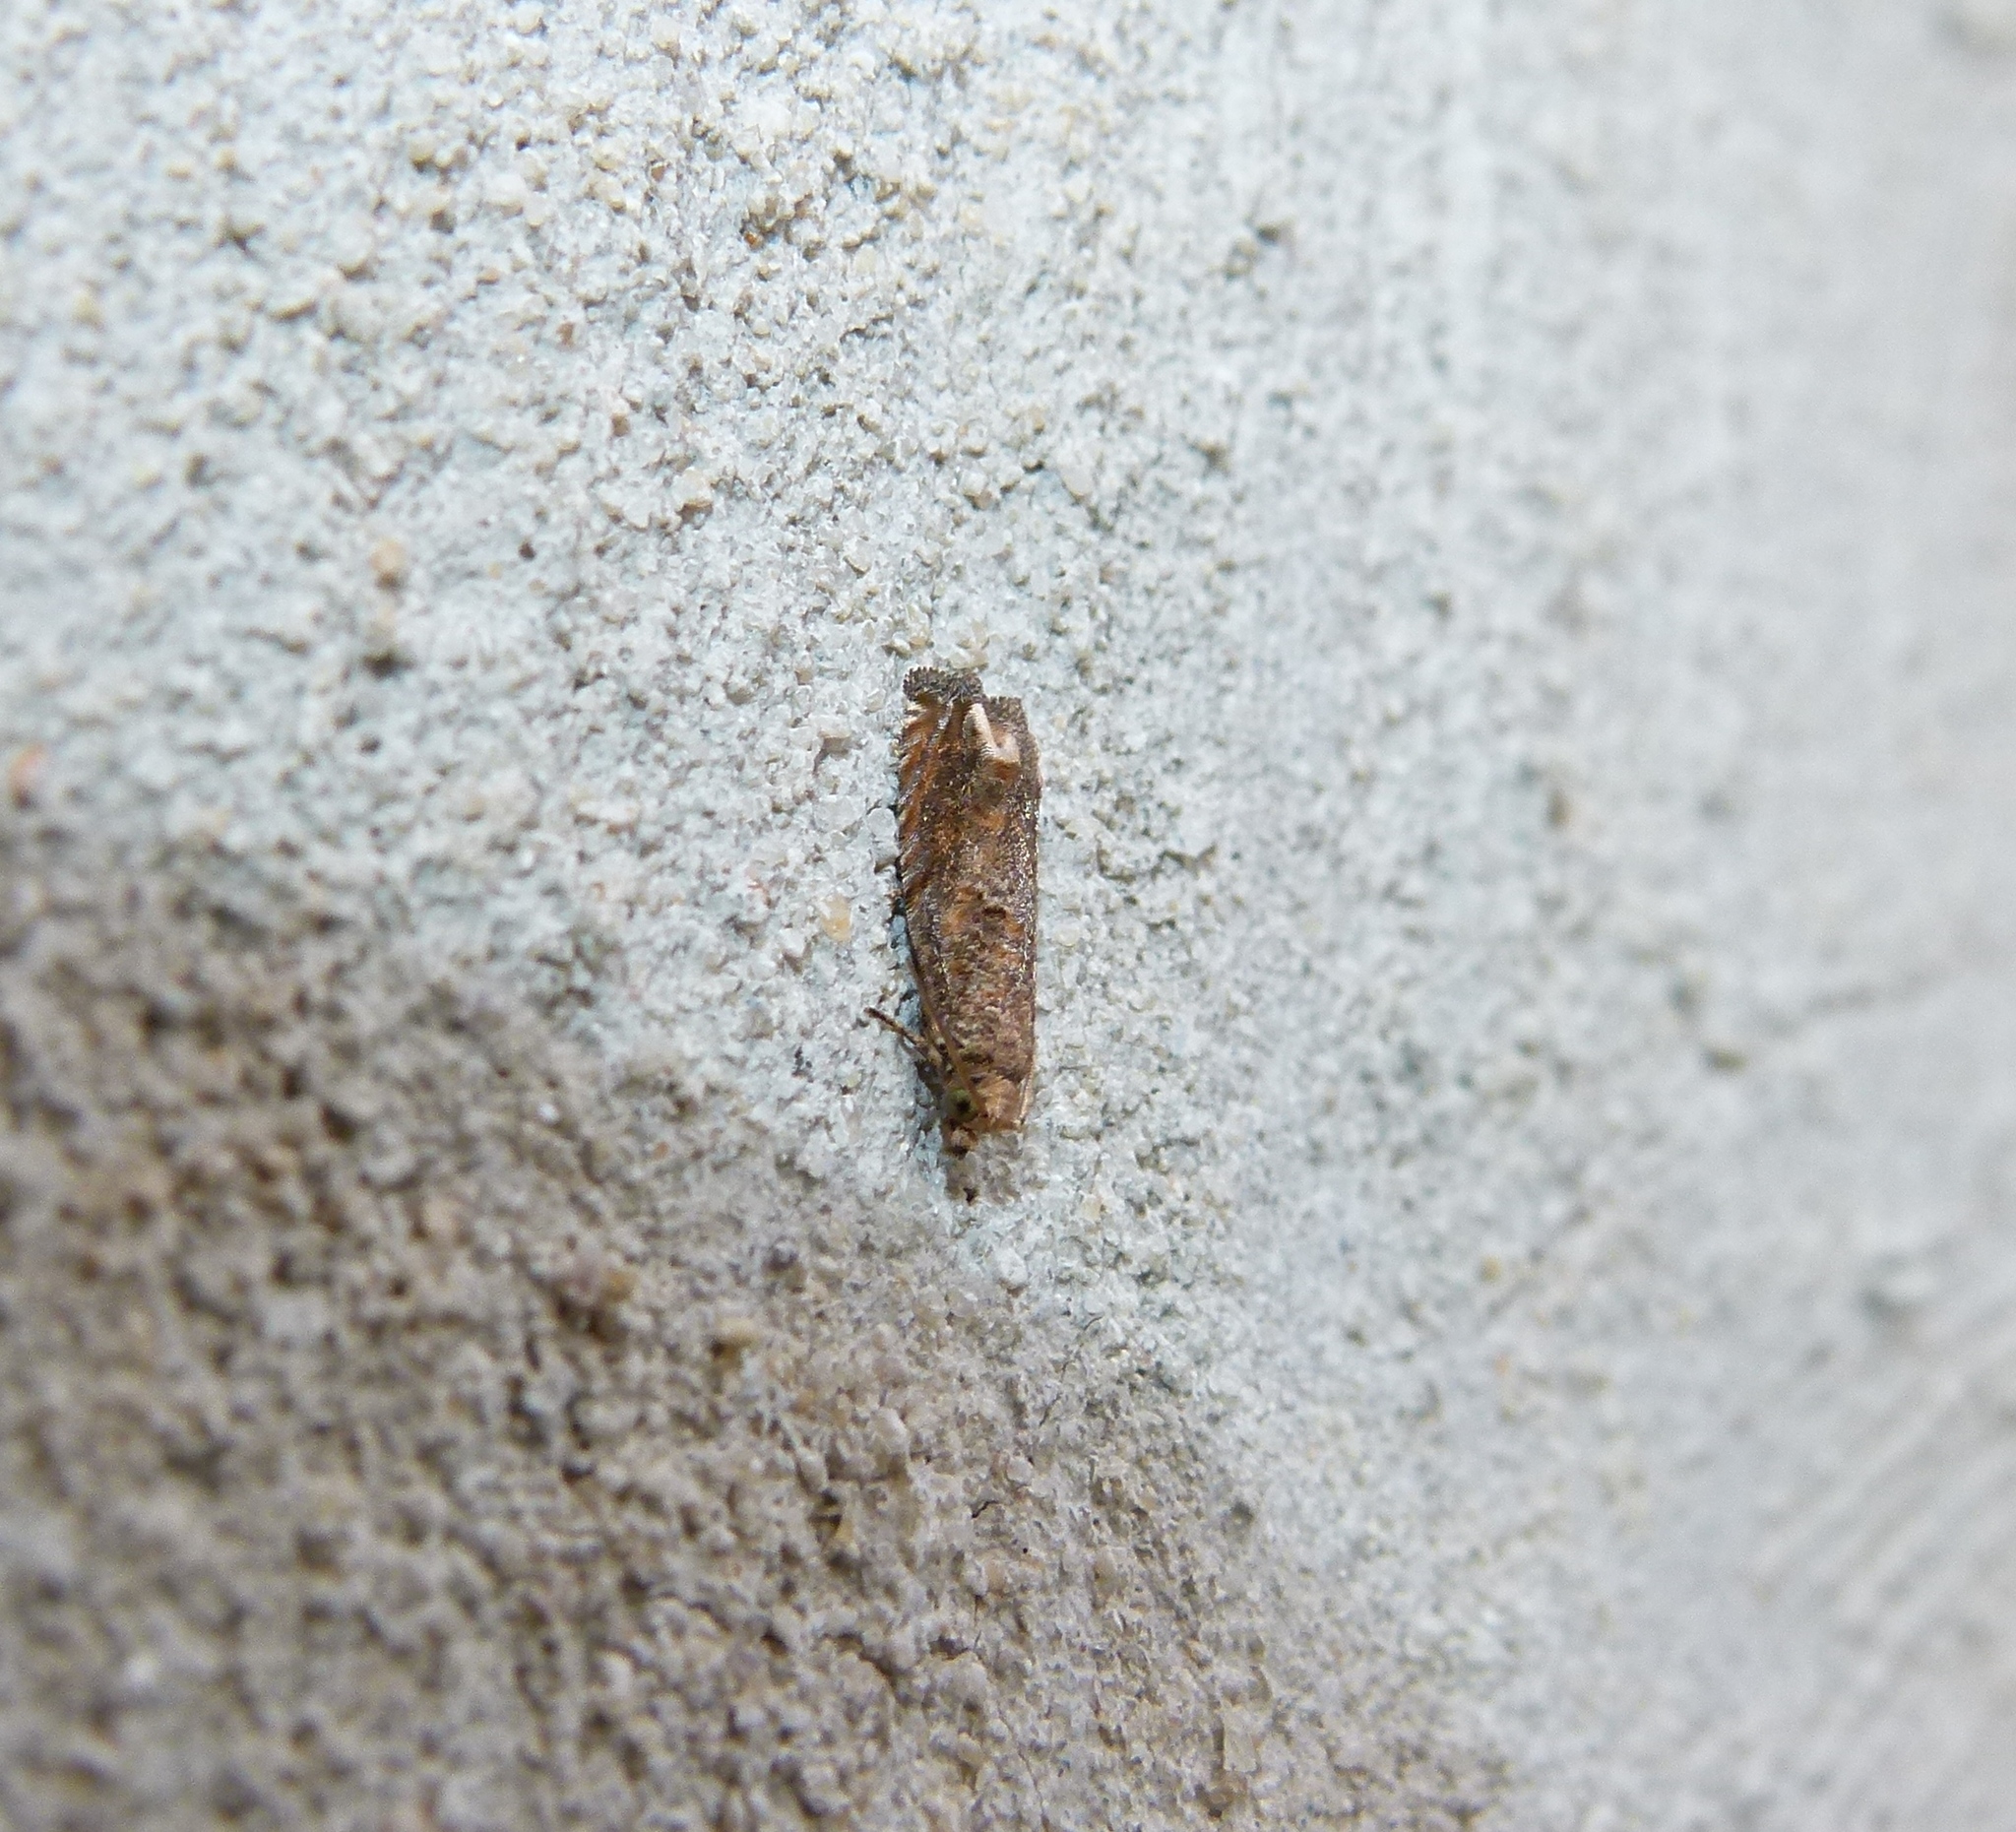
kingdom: Animalia
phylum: Arthropoda
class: Insecta
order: Lepidoptera
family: Tortricidae
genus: Epiblema
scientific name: Epiblema mandana
